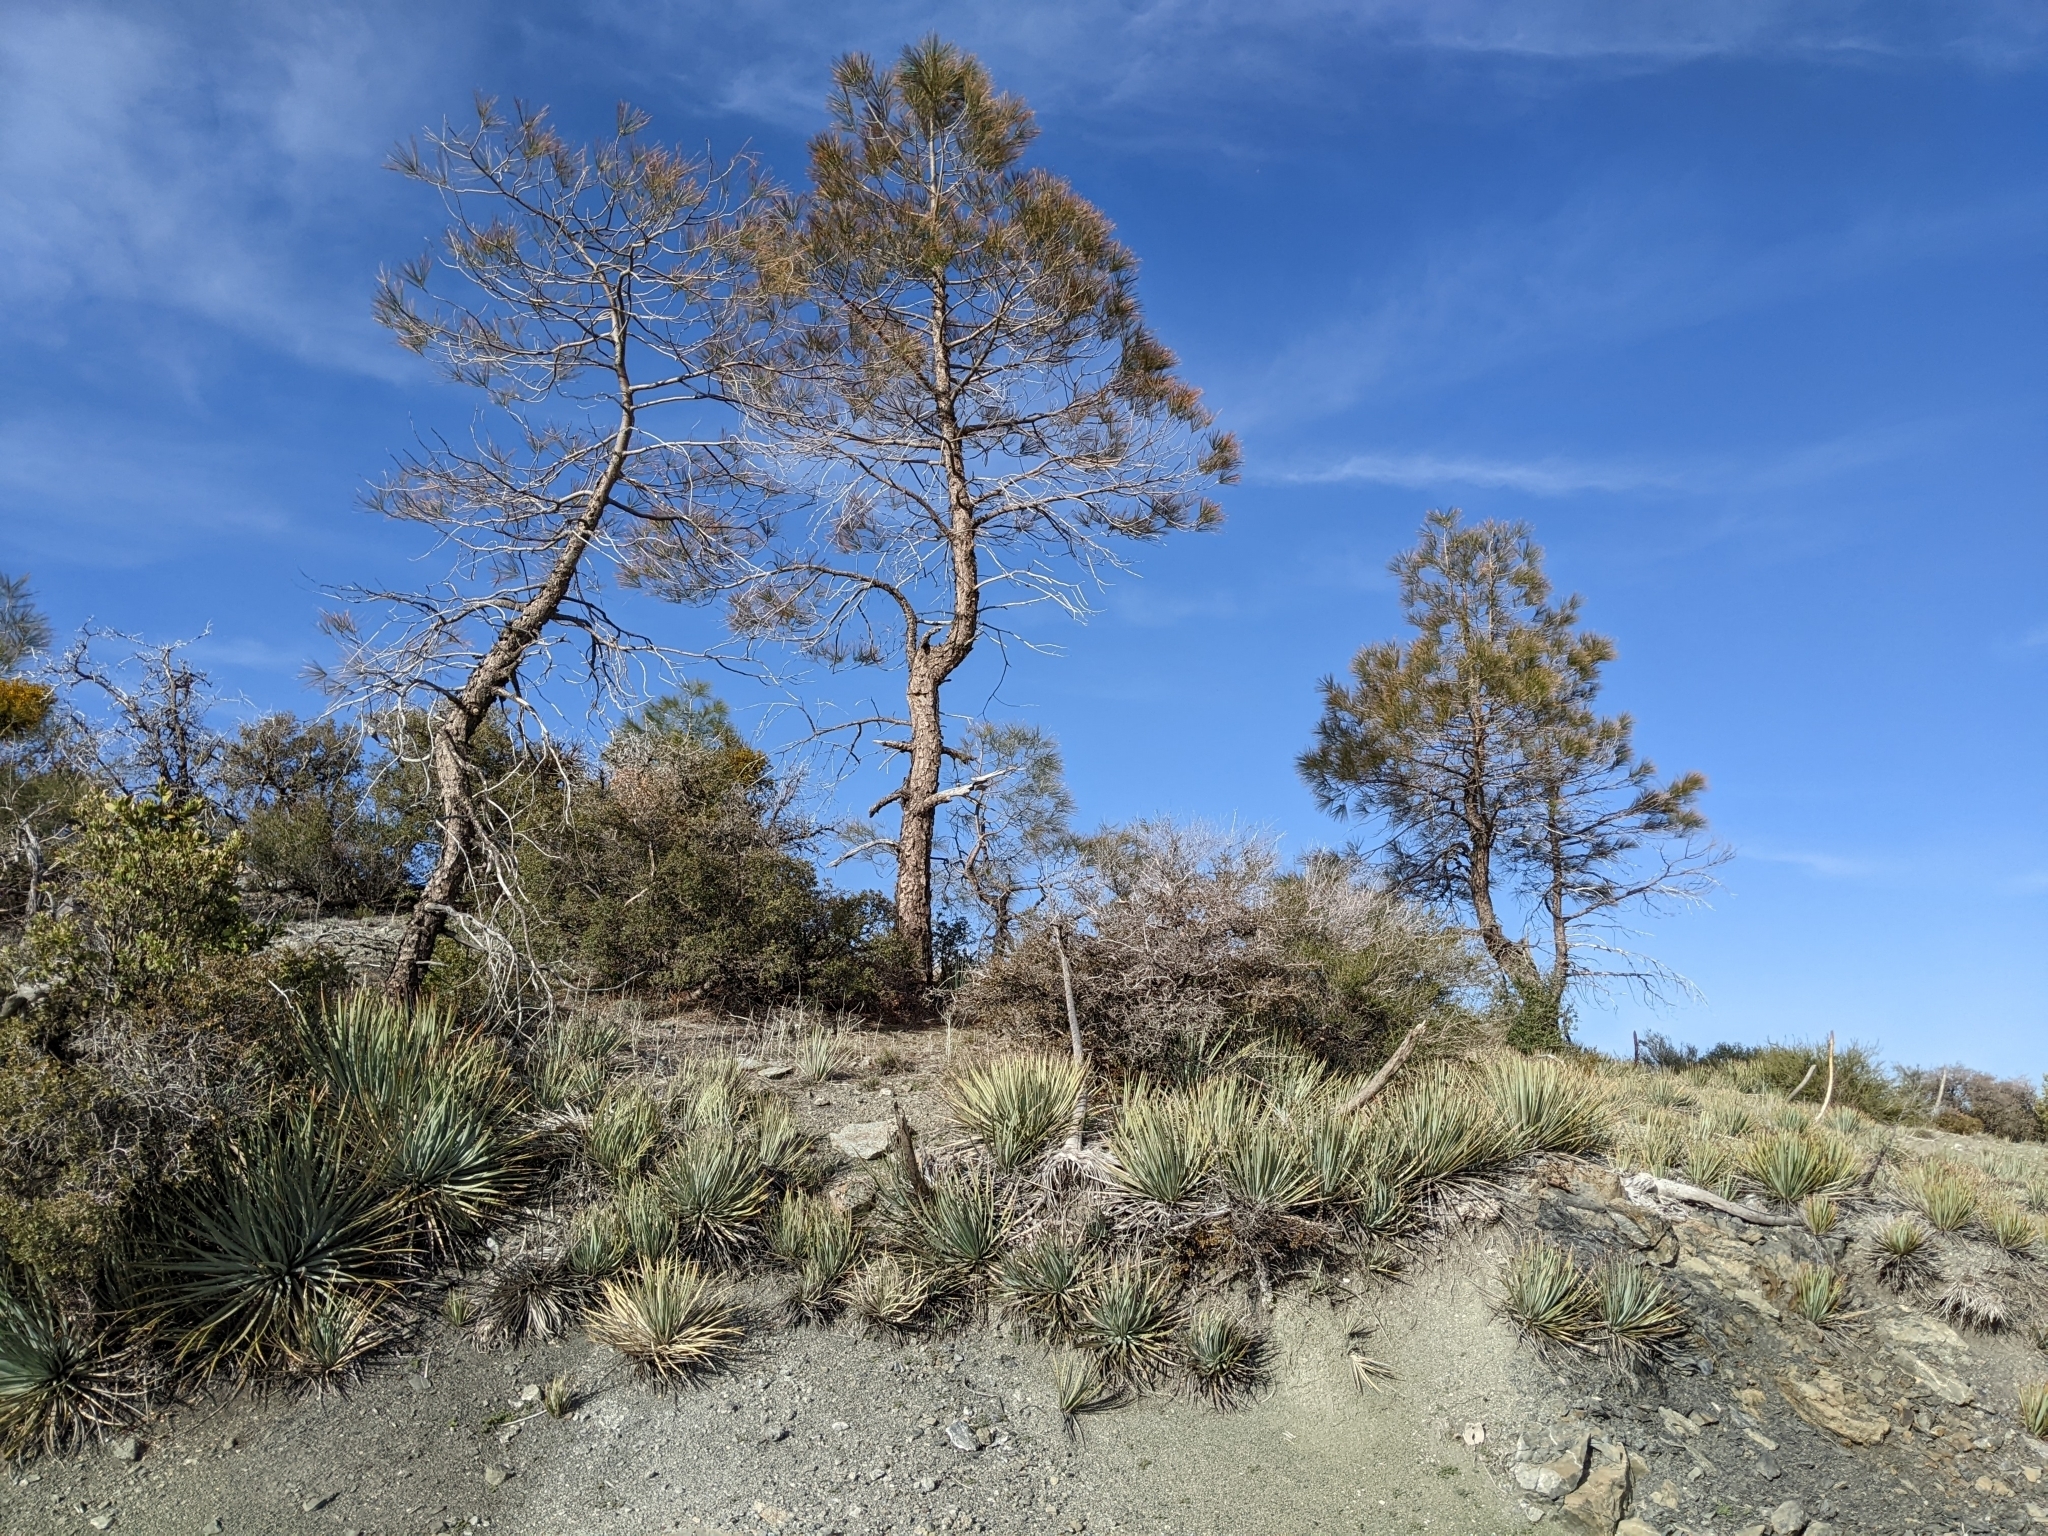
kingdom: Plantae
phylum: Tracheophyta
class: Liliopsida
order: Asparagales
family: Asparagaceae
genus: Hesperoyucca
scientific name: Hesperoyucca whipplei
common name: Our lord's-candle
